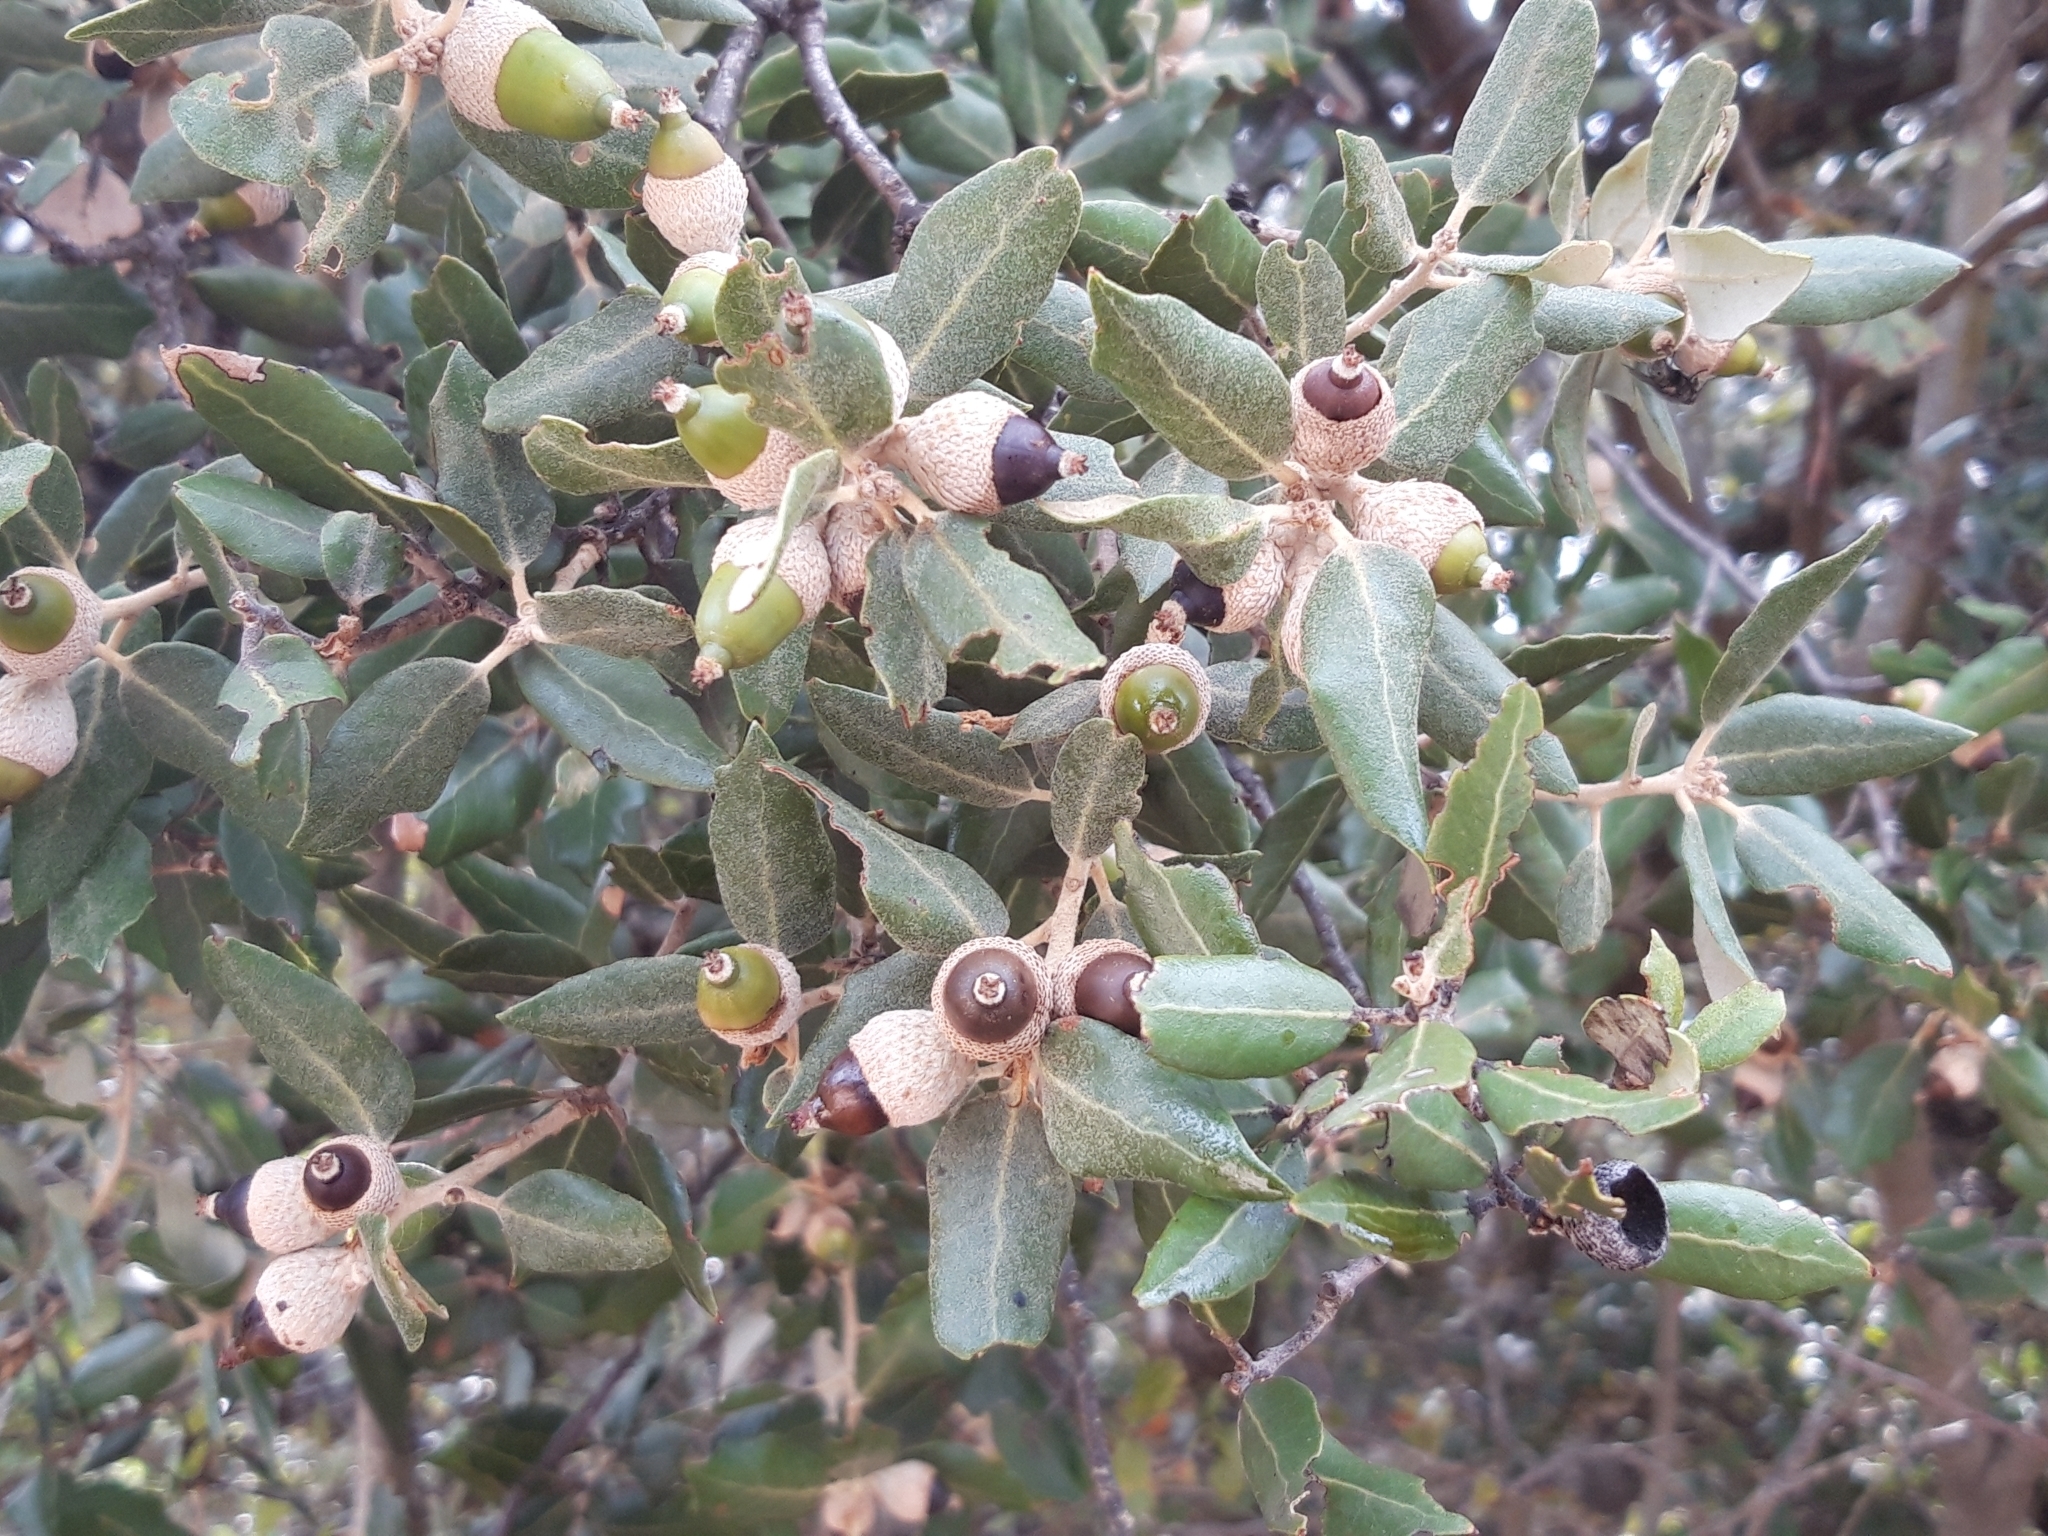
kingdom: Plantae
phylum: Tracheophyta
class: Magnoliopsida
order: Fagales
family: Fagaceae
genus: Quercus
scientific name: Quercus rotundifolia
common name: Holm oak
